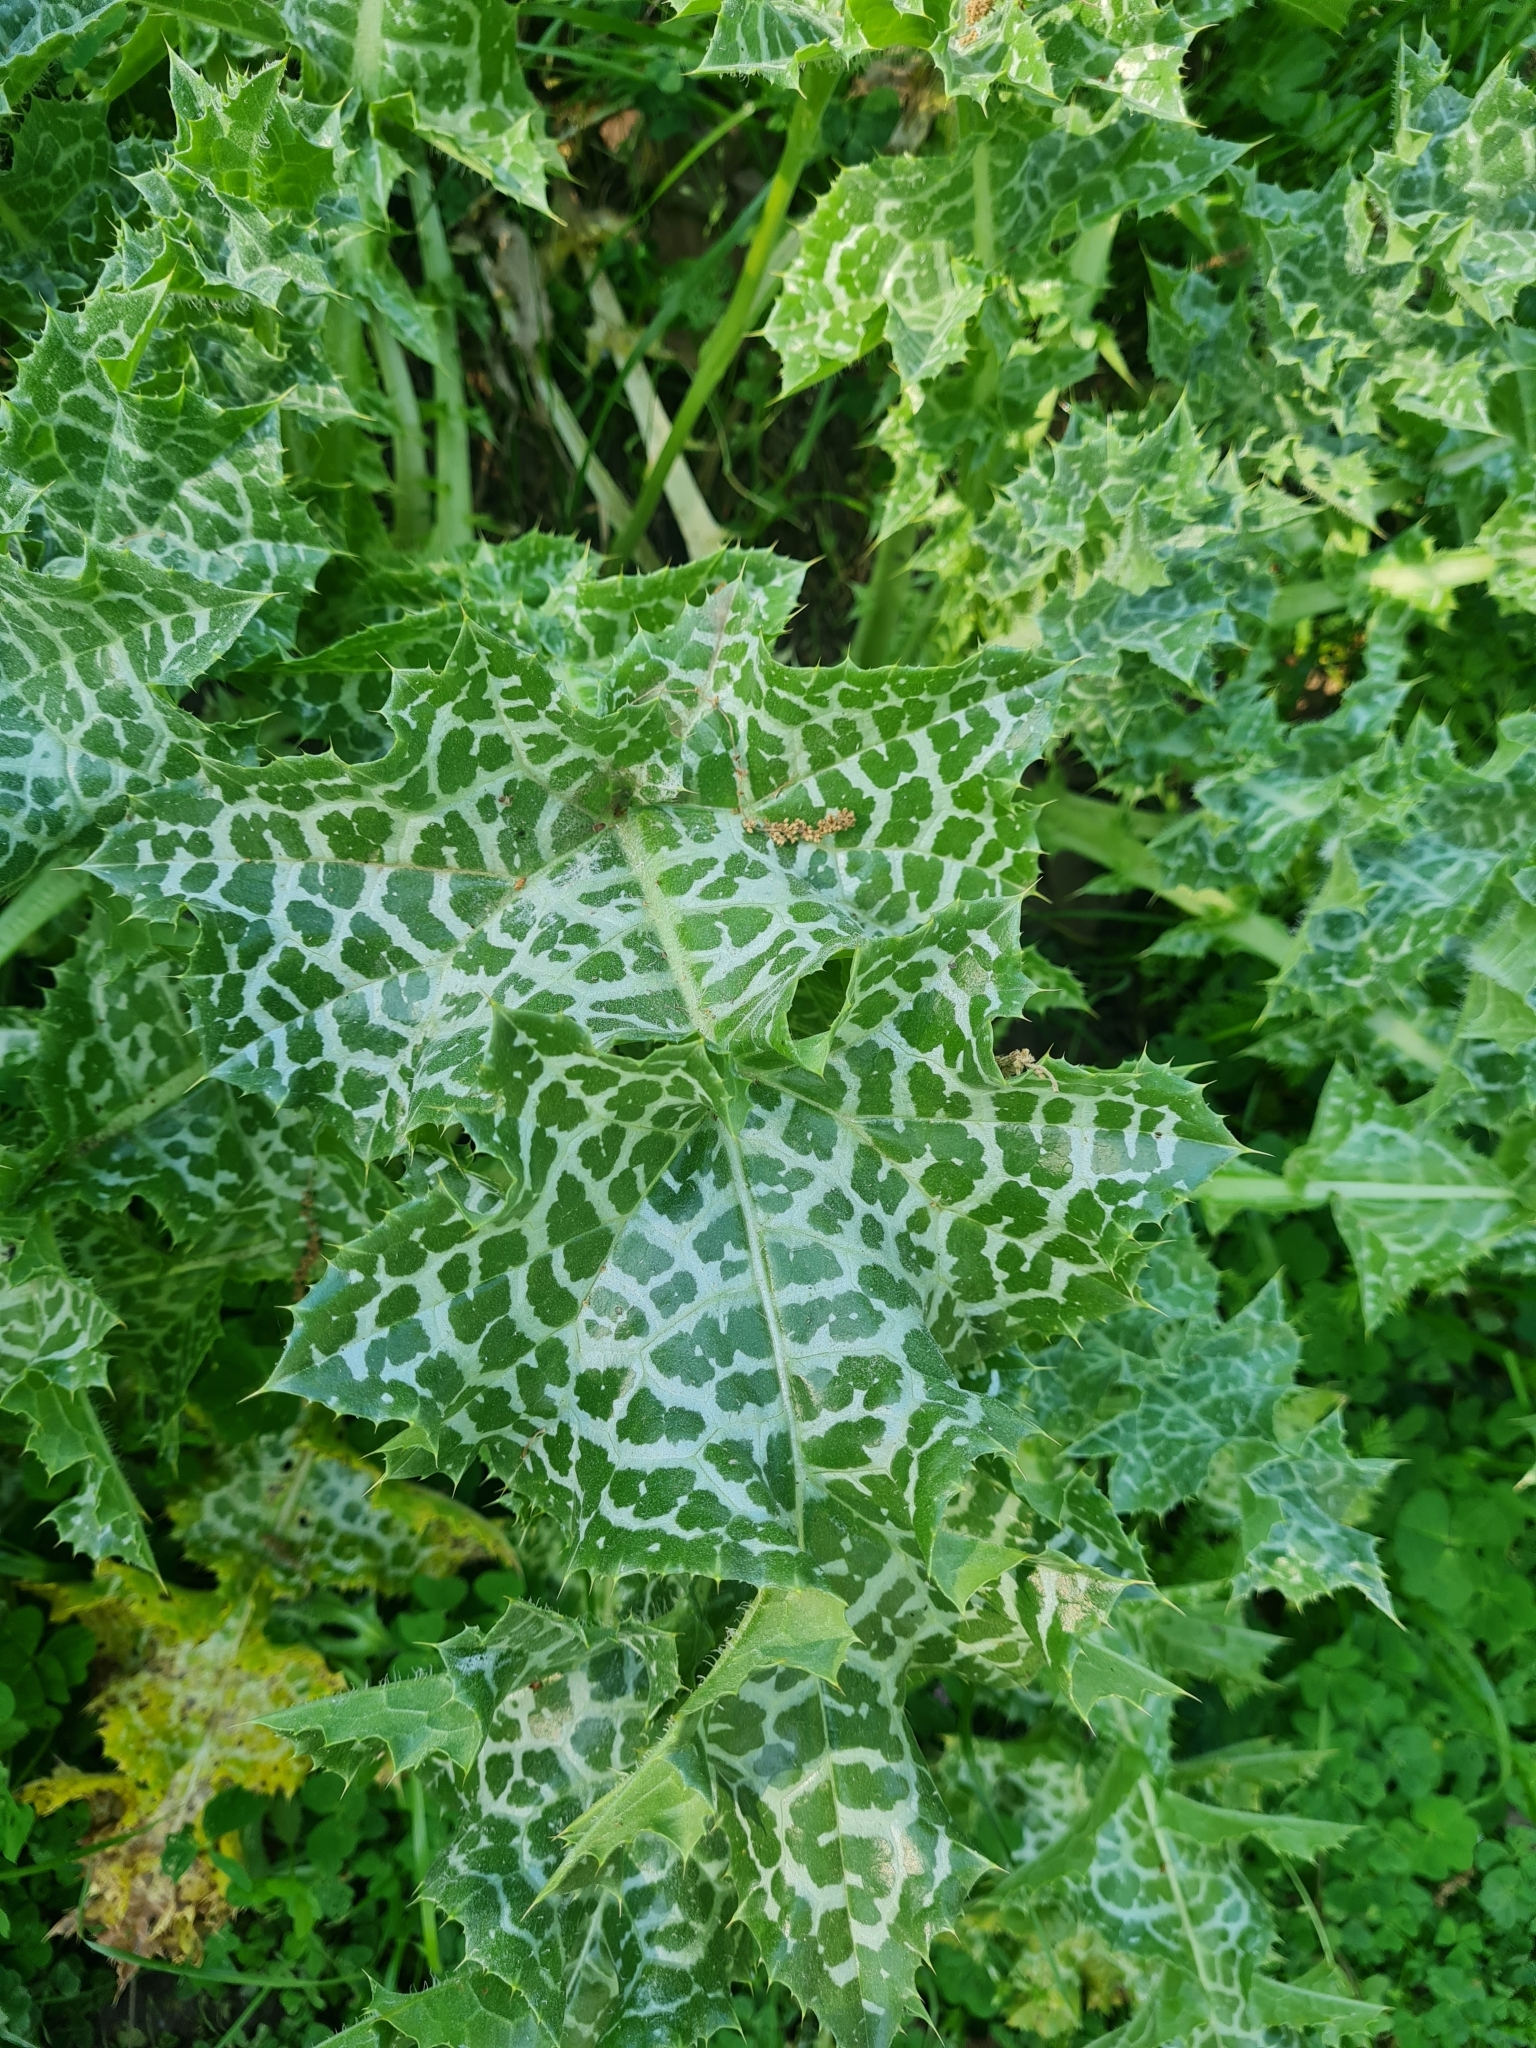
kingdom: Plantae
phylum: Tracheophyta
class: Magnoliopsida
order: Asterales
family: Asteraceae
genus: Silybum
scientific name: Silybum marianum
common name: Milk thistle
